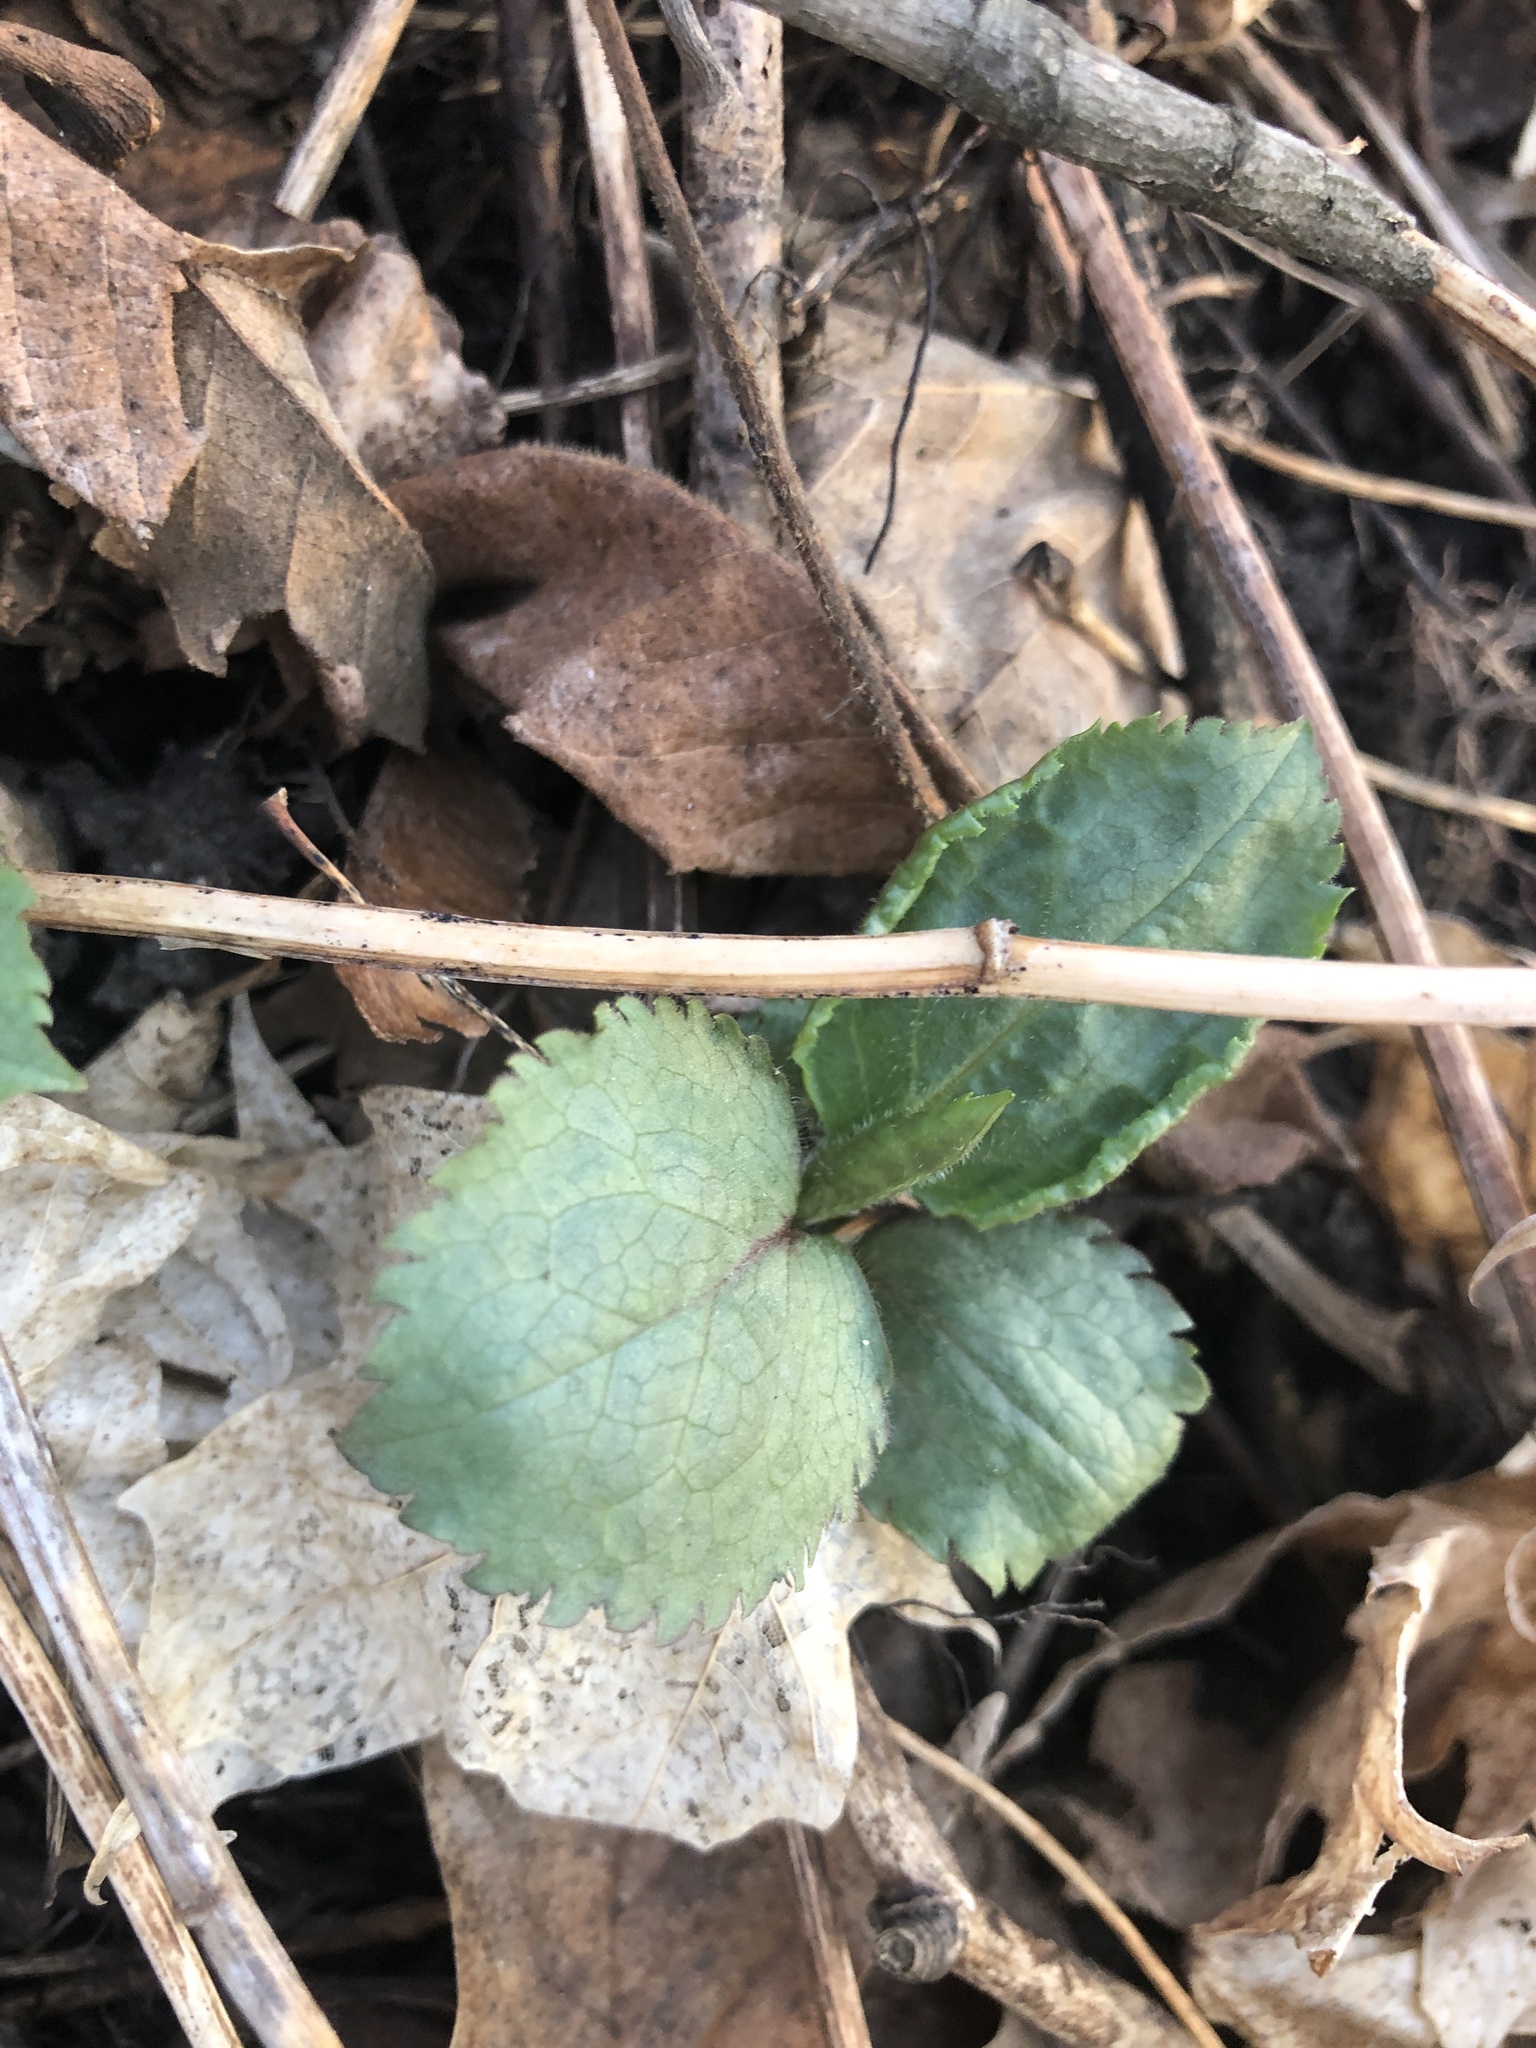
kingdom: Plantae
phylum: Tracheophyta
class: Magnoliopsida
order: Asterales
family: Asteraceae
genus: Solidago
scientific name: Solidago flexicaulis
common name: Zig-zag goldenrod
